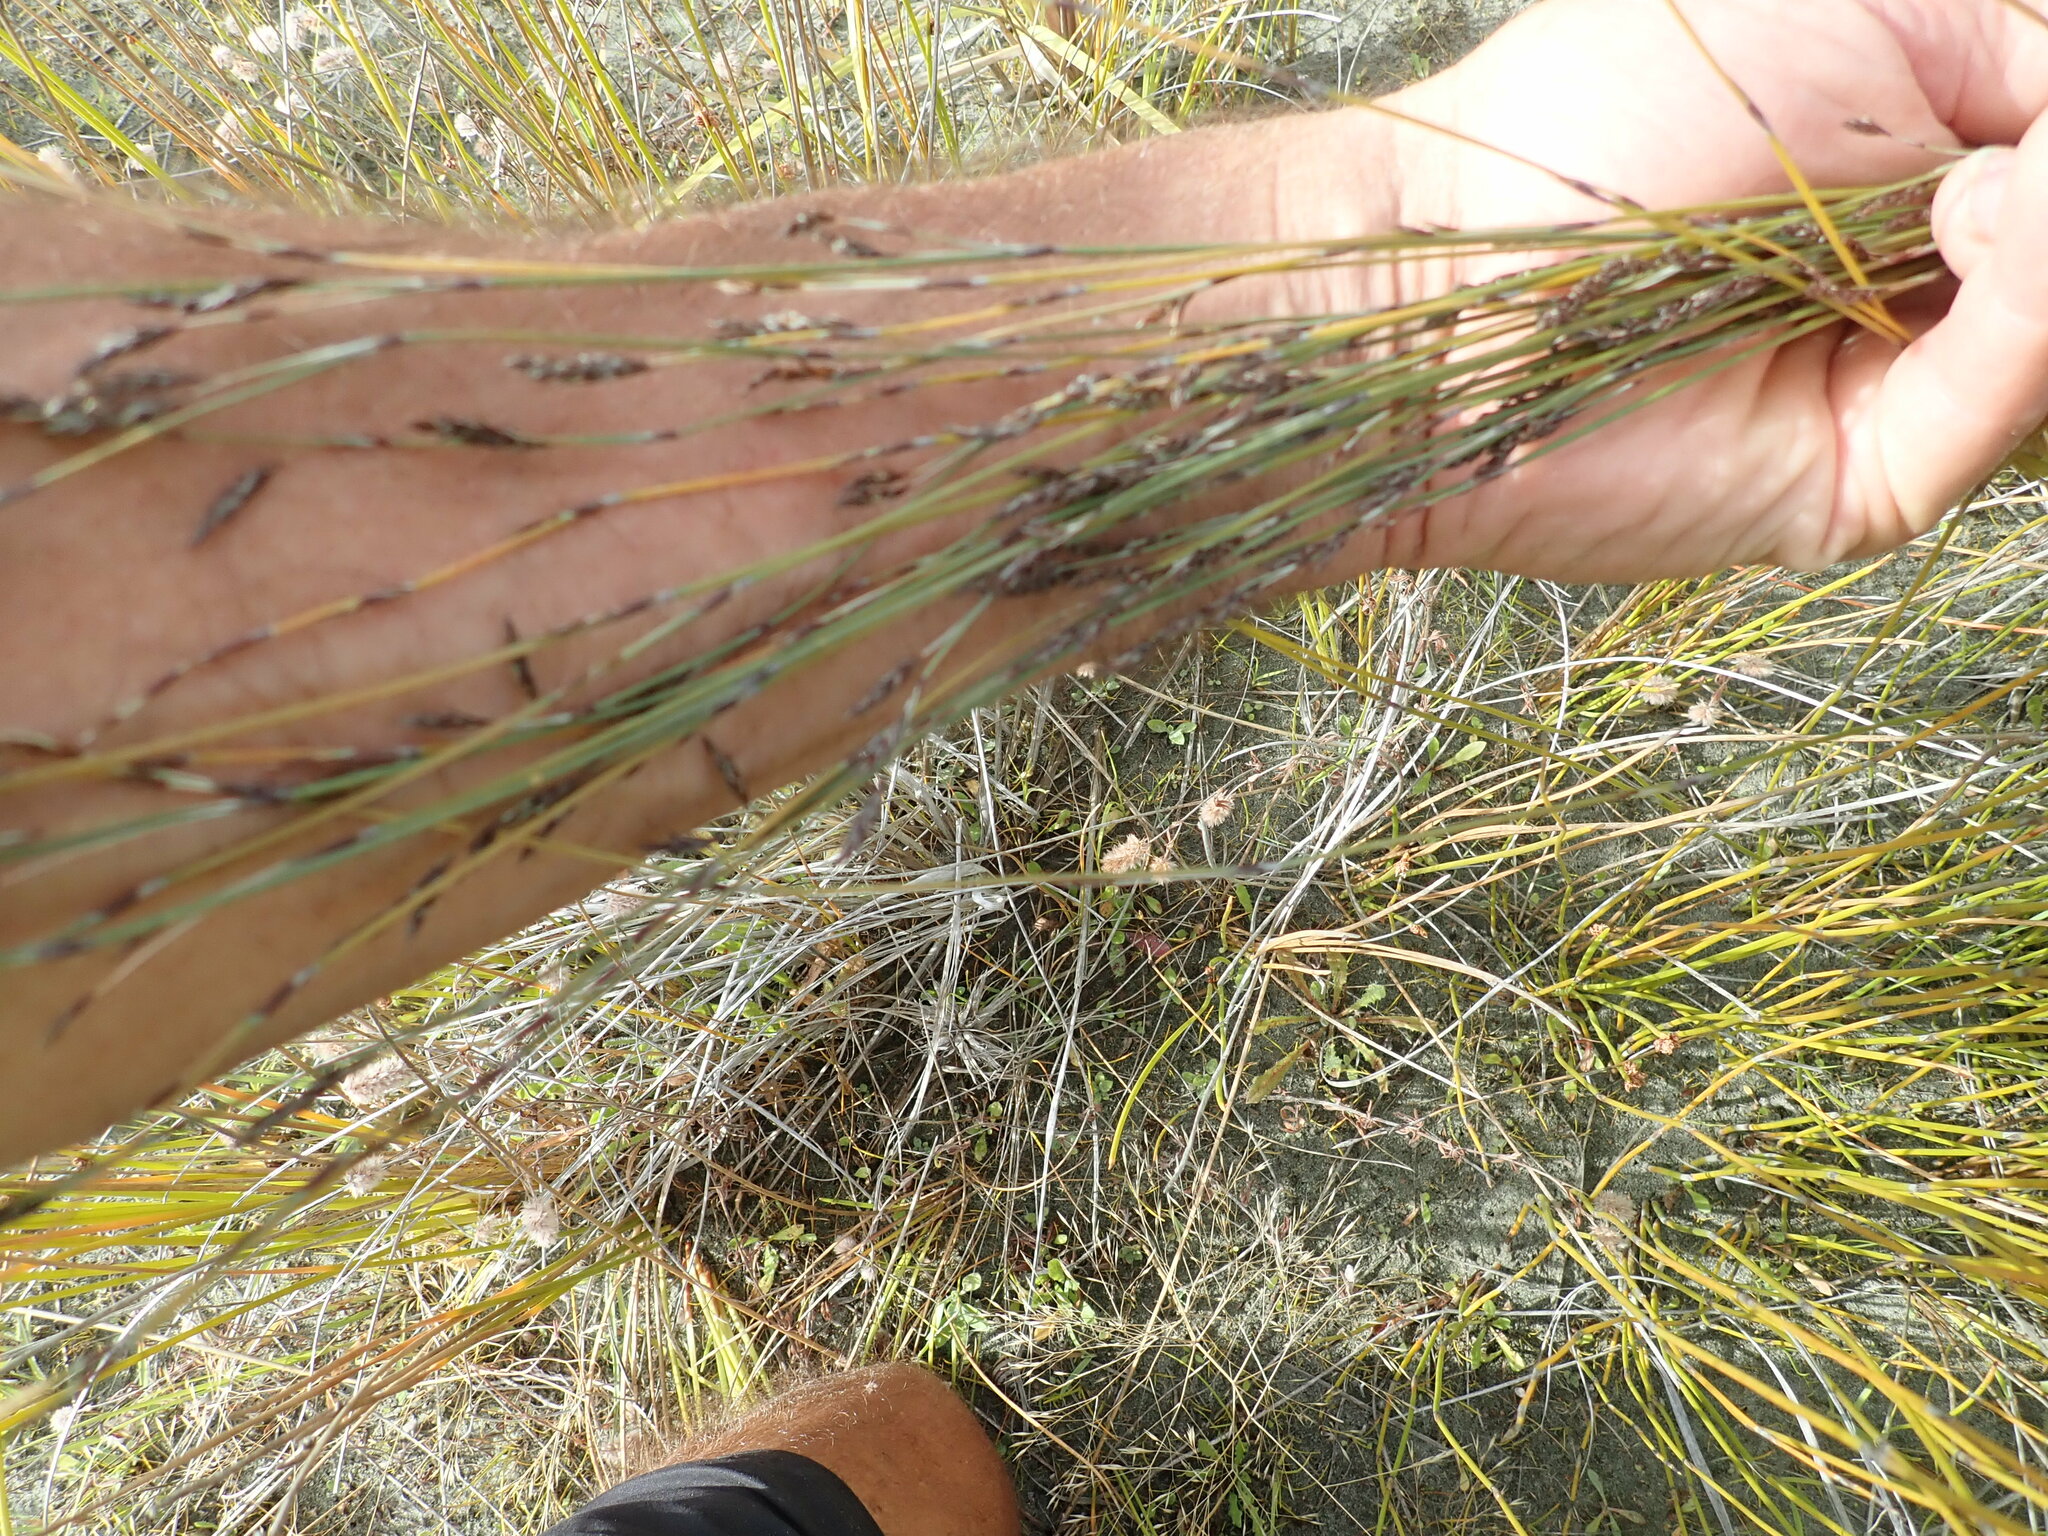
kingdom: Plantae
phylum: Tracheophyta
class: Liliopsida
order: Poales
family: Restionaceae
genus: Apodasmia
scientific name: Apodasmia similis
